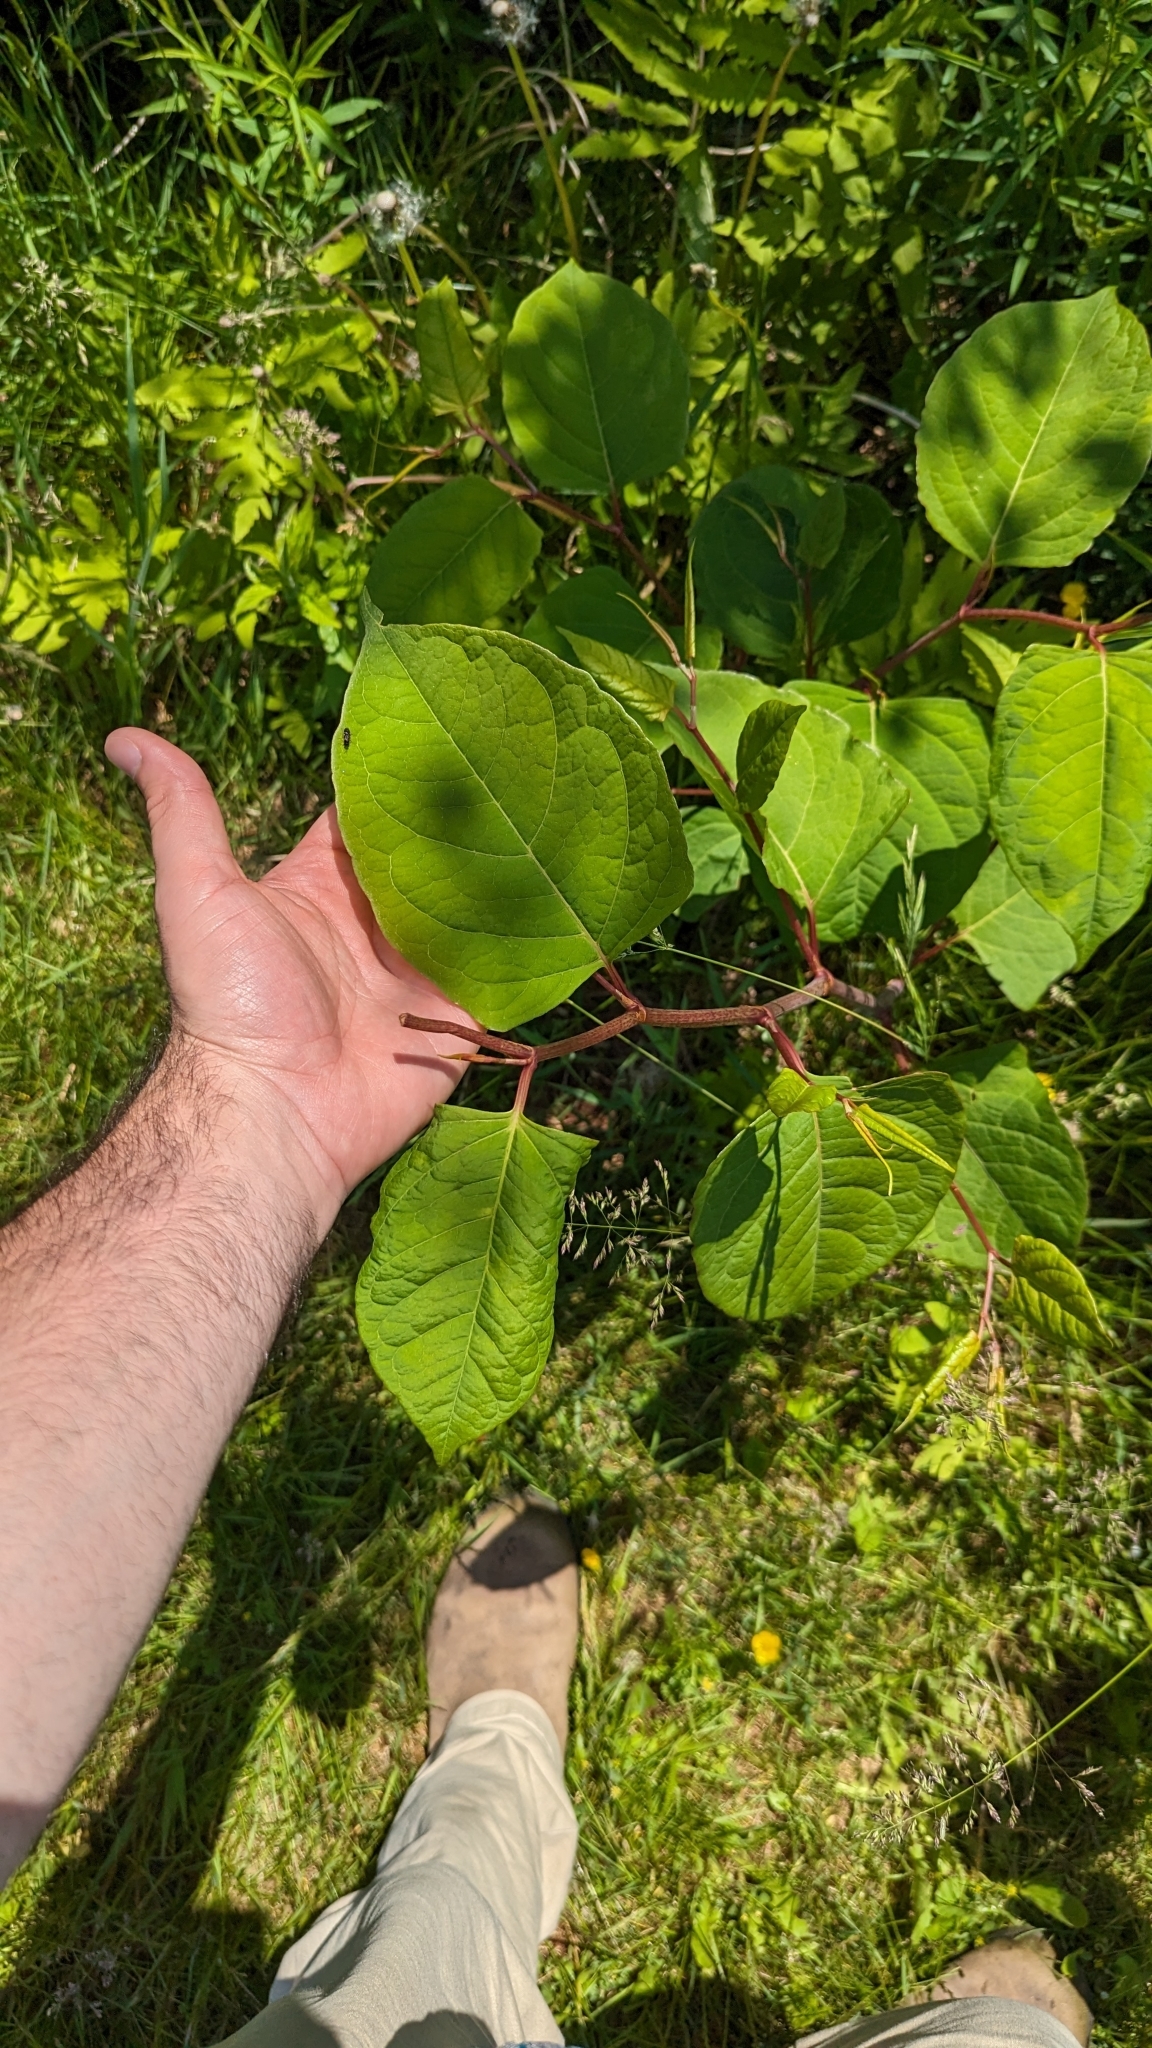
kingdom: Plantae
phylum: Tracheophyta
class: Magnoliopsida
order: Caryophyllales
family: Polygonaceae
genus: Reynoutria
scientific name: Reynoutria japonica
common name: Japanese knotweed
